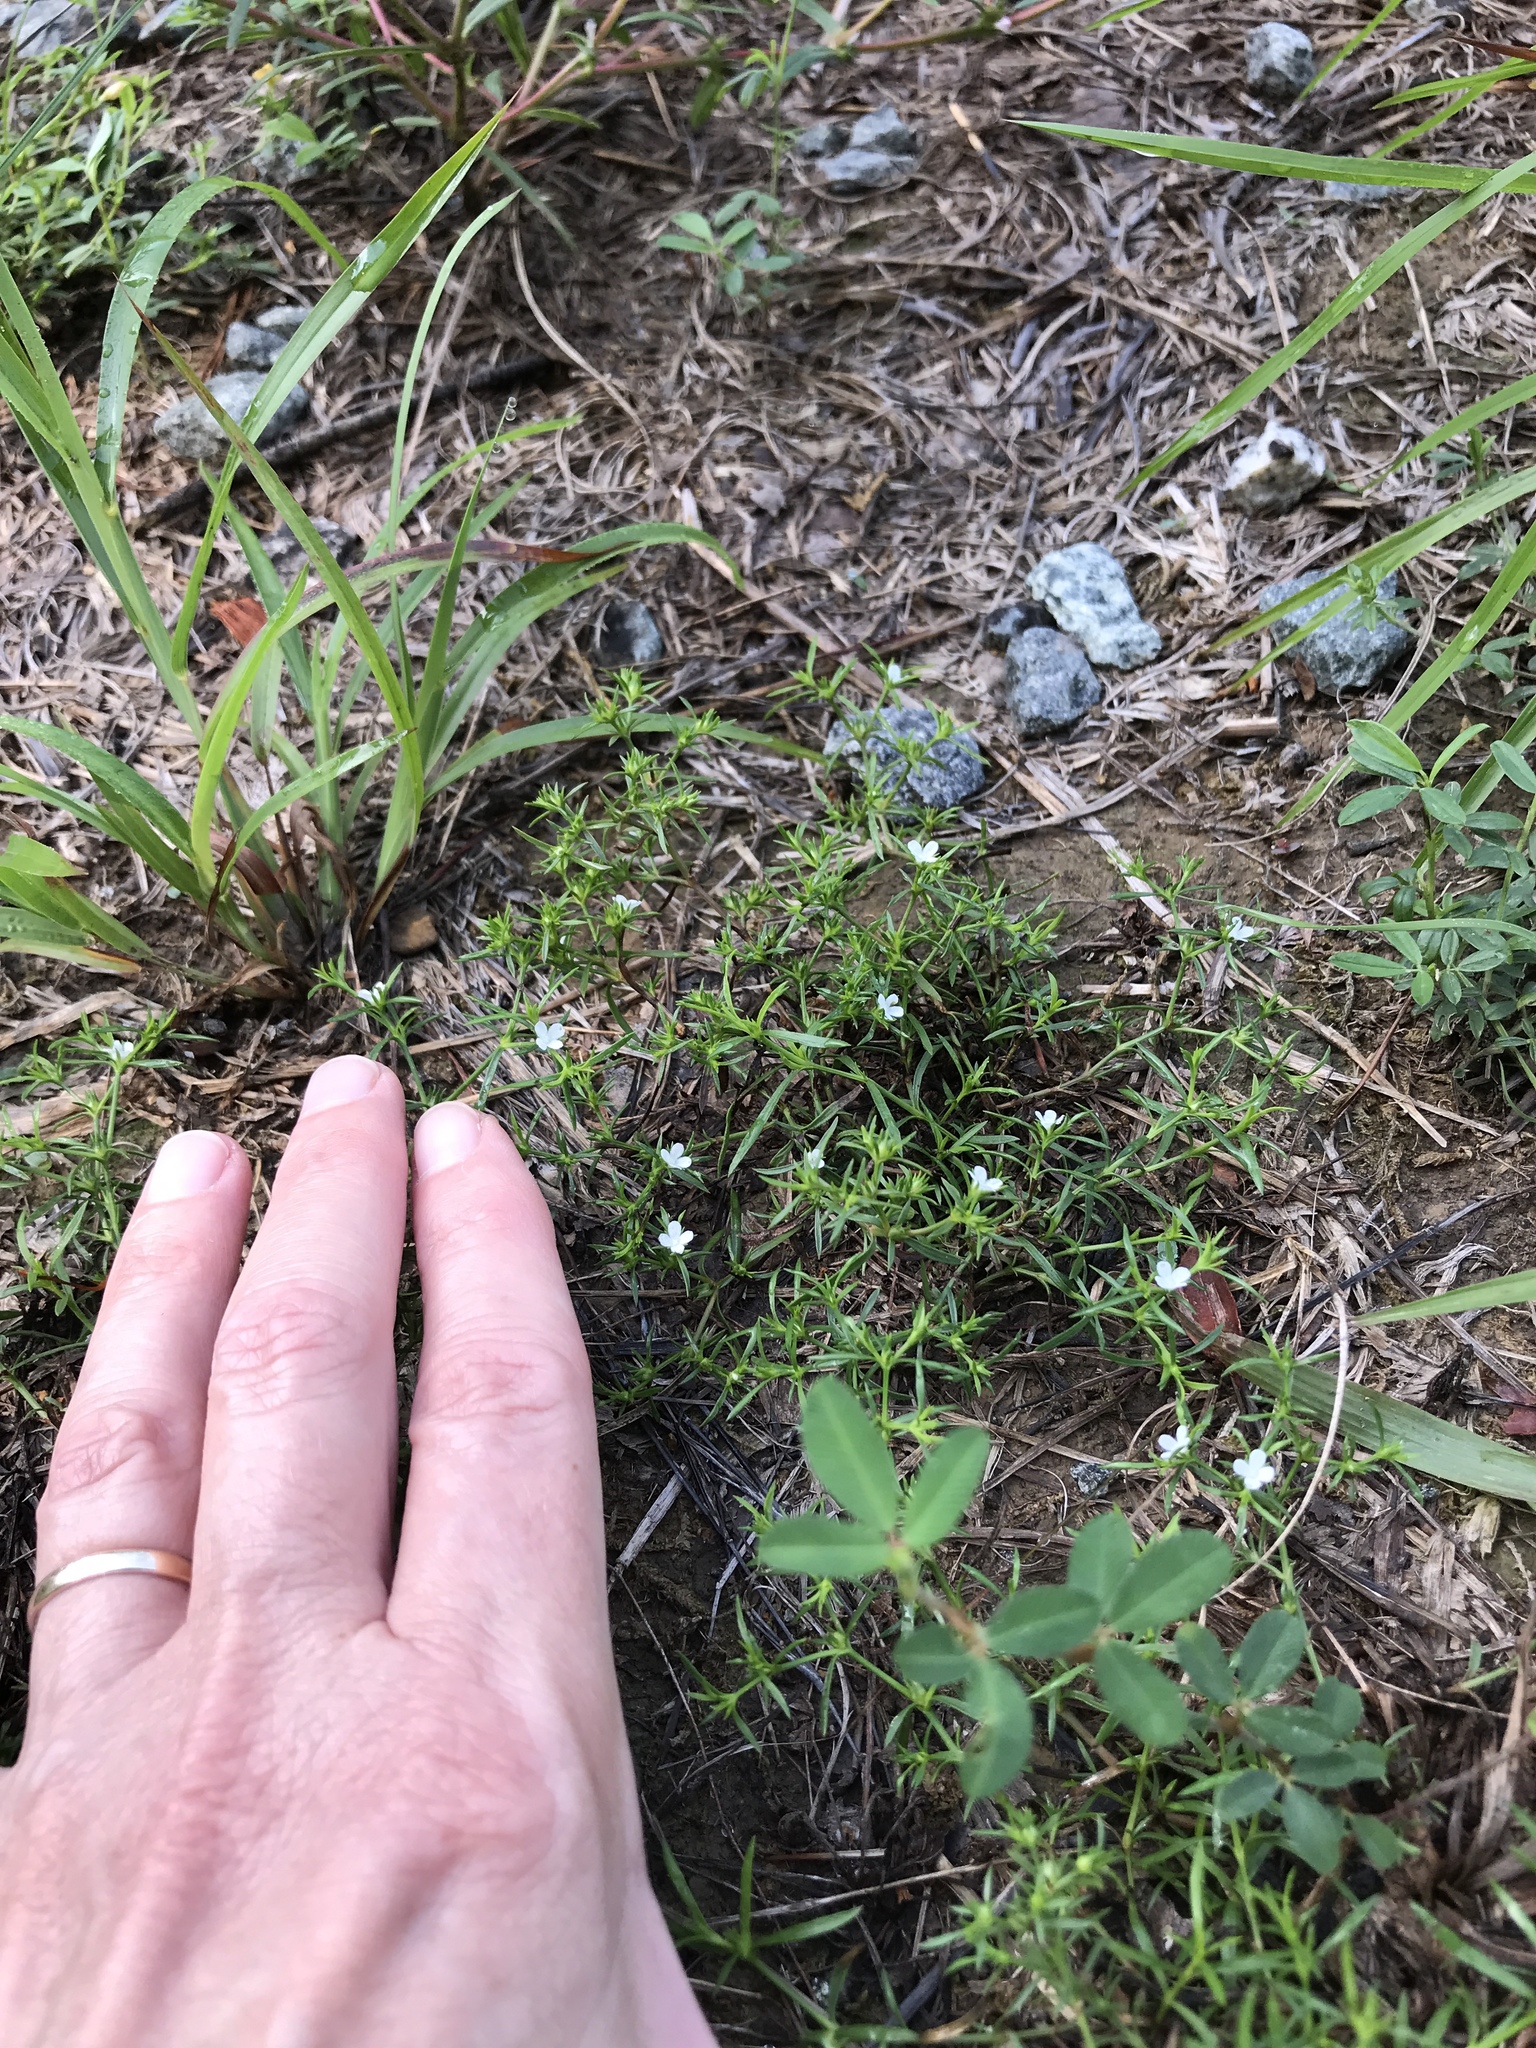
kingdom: Plantae
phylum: Tracheophyta
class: Magnoliopsida
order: Lamiales
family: Tetrachondraceae
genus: Polypremum
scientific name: Polypremum procumbens
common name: Juniper-leaf
